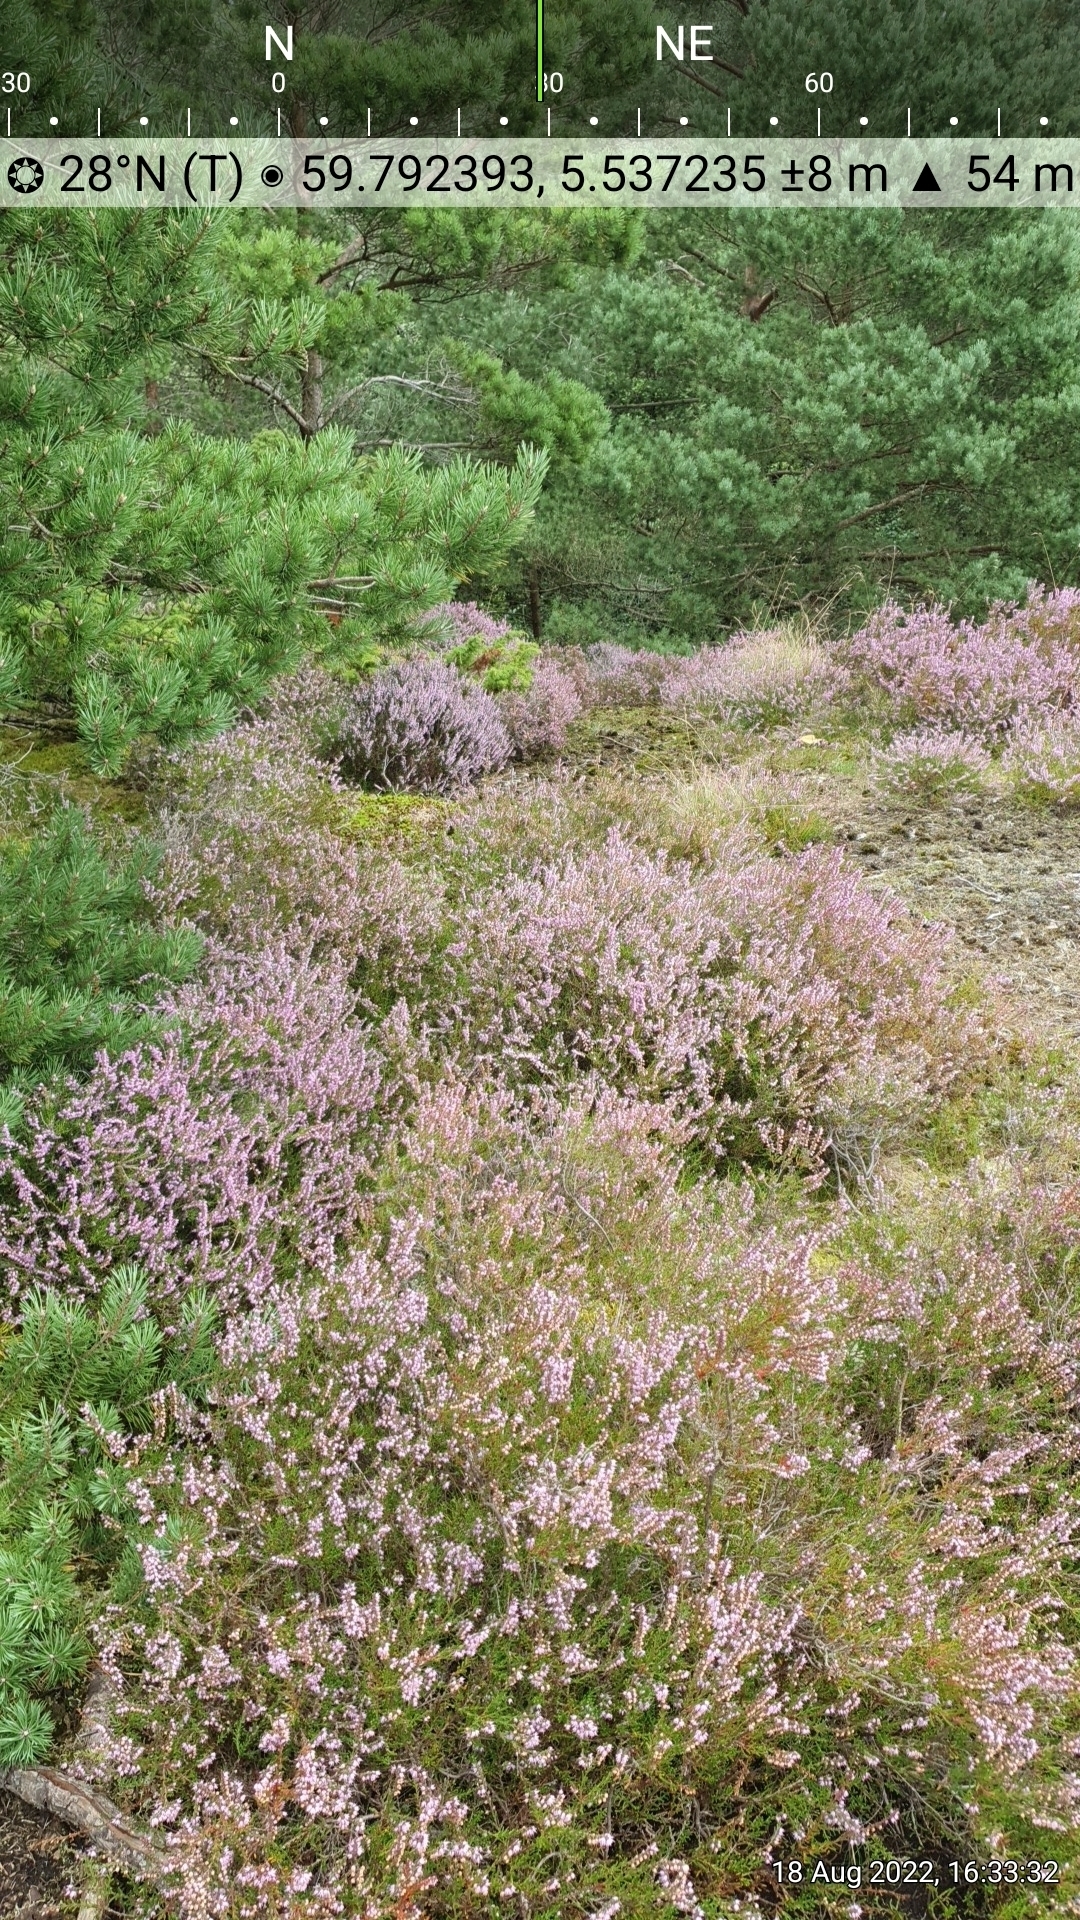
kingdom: Plantae
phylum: Tracheophyta
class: Magnoliopsida
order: Ericales
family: Ericaceae
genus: Calluna
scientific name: Calluna vulgaris
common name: Heather
